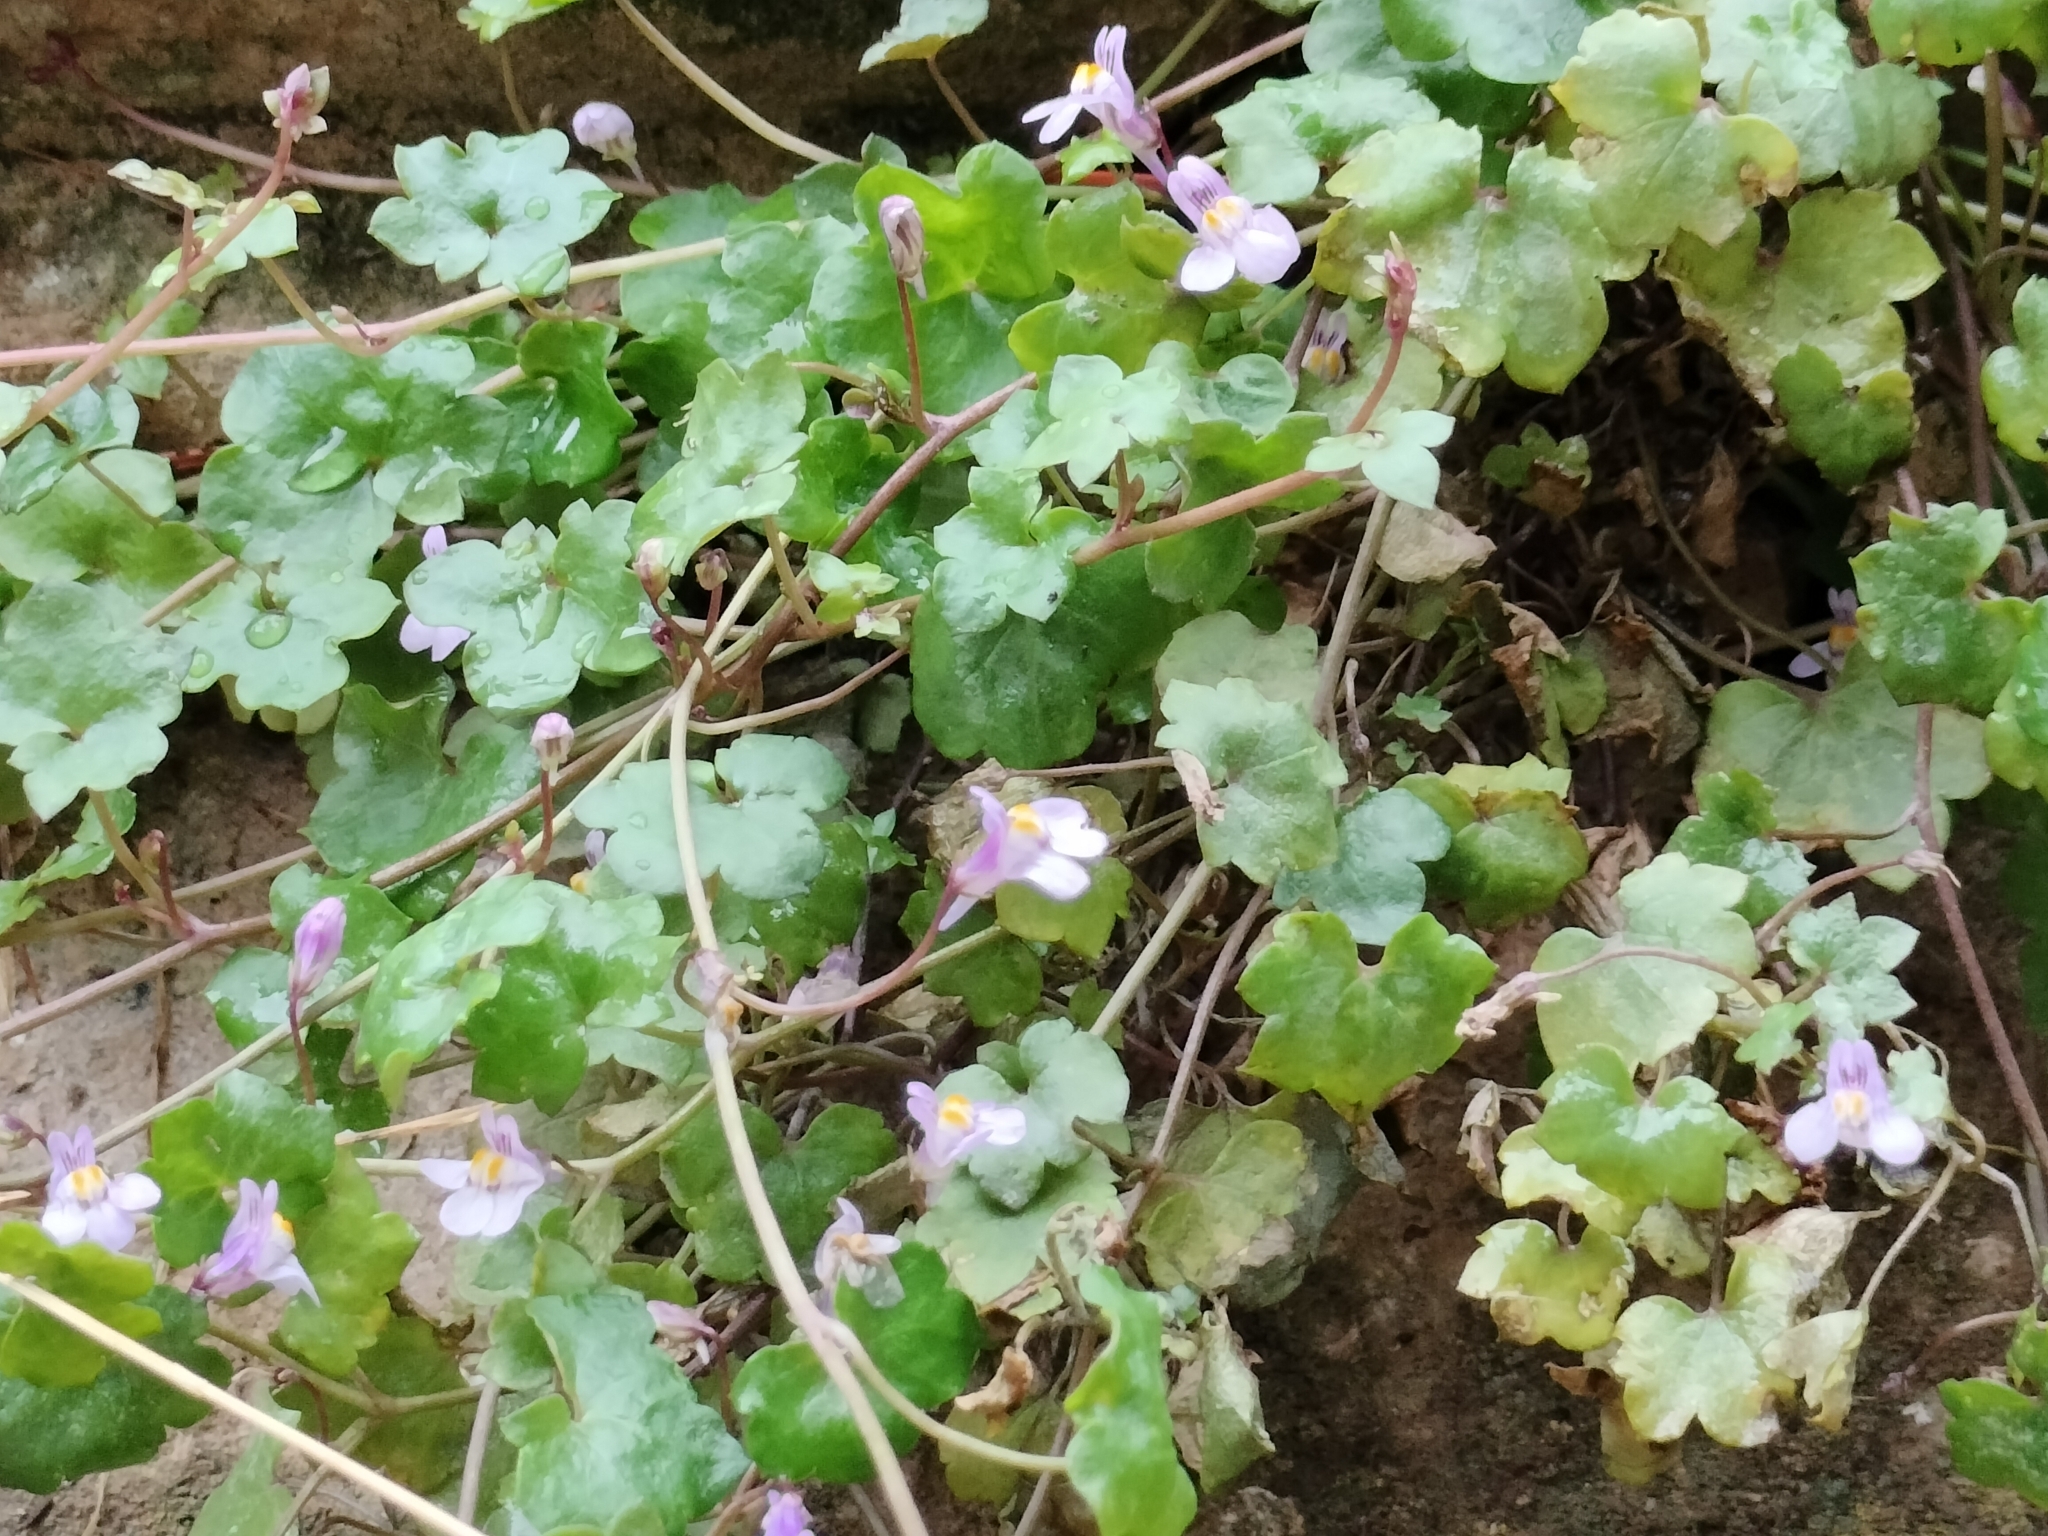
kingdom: Plantae
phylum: Tracheophyta
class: Magnoliopsida
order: Lamiales
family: Plantaginaceae
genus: Cymbalaria
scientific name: Cymbalaria muralis
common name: Ivy-leaved toadflax
